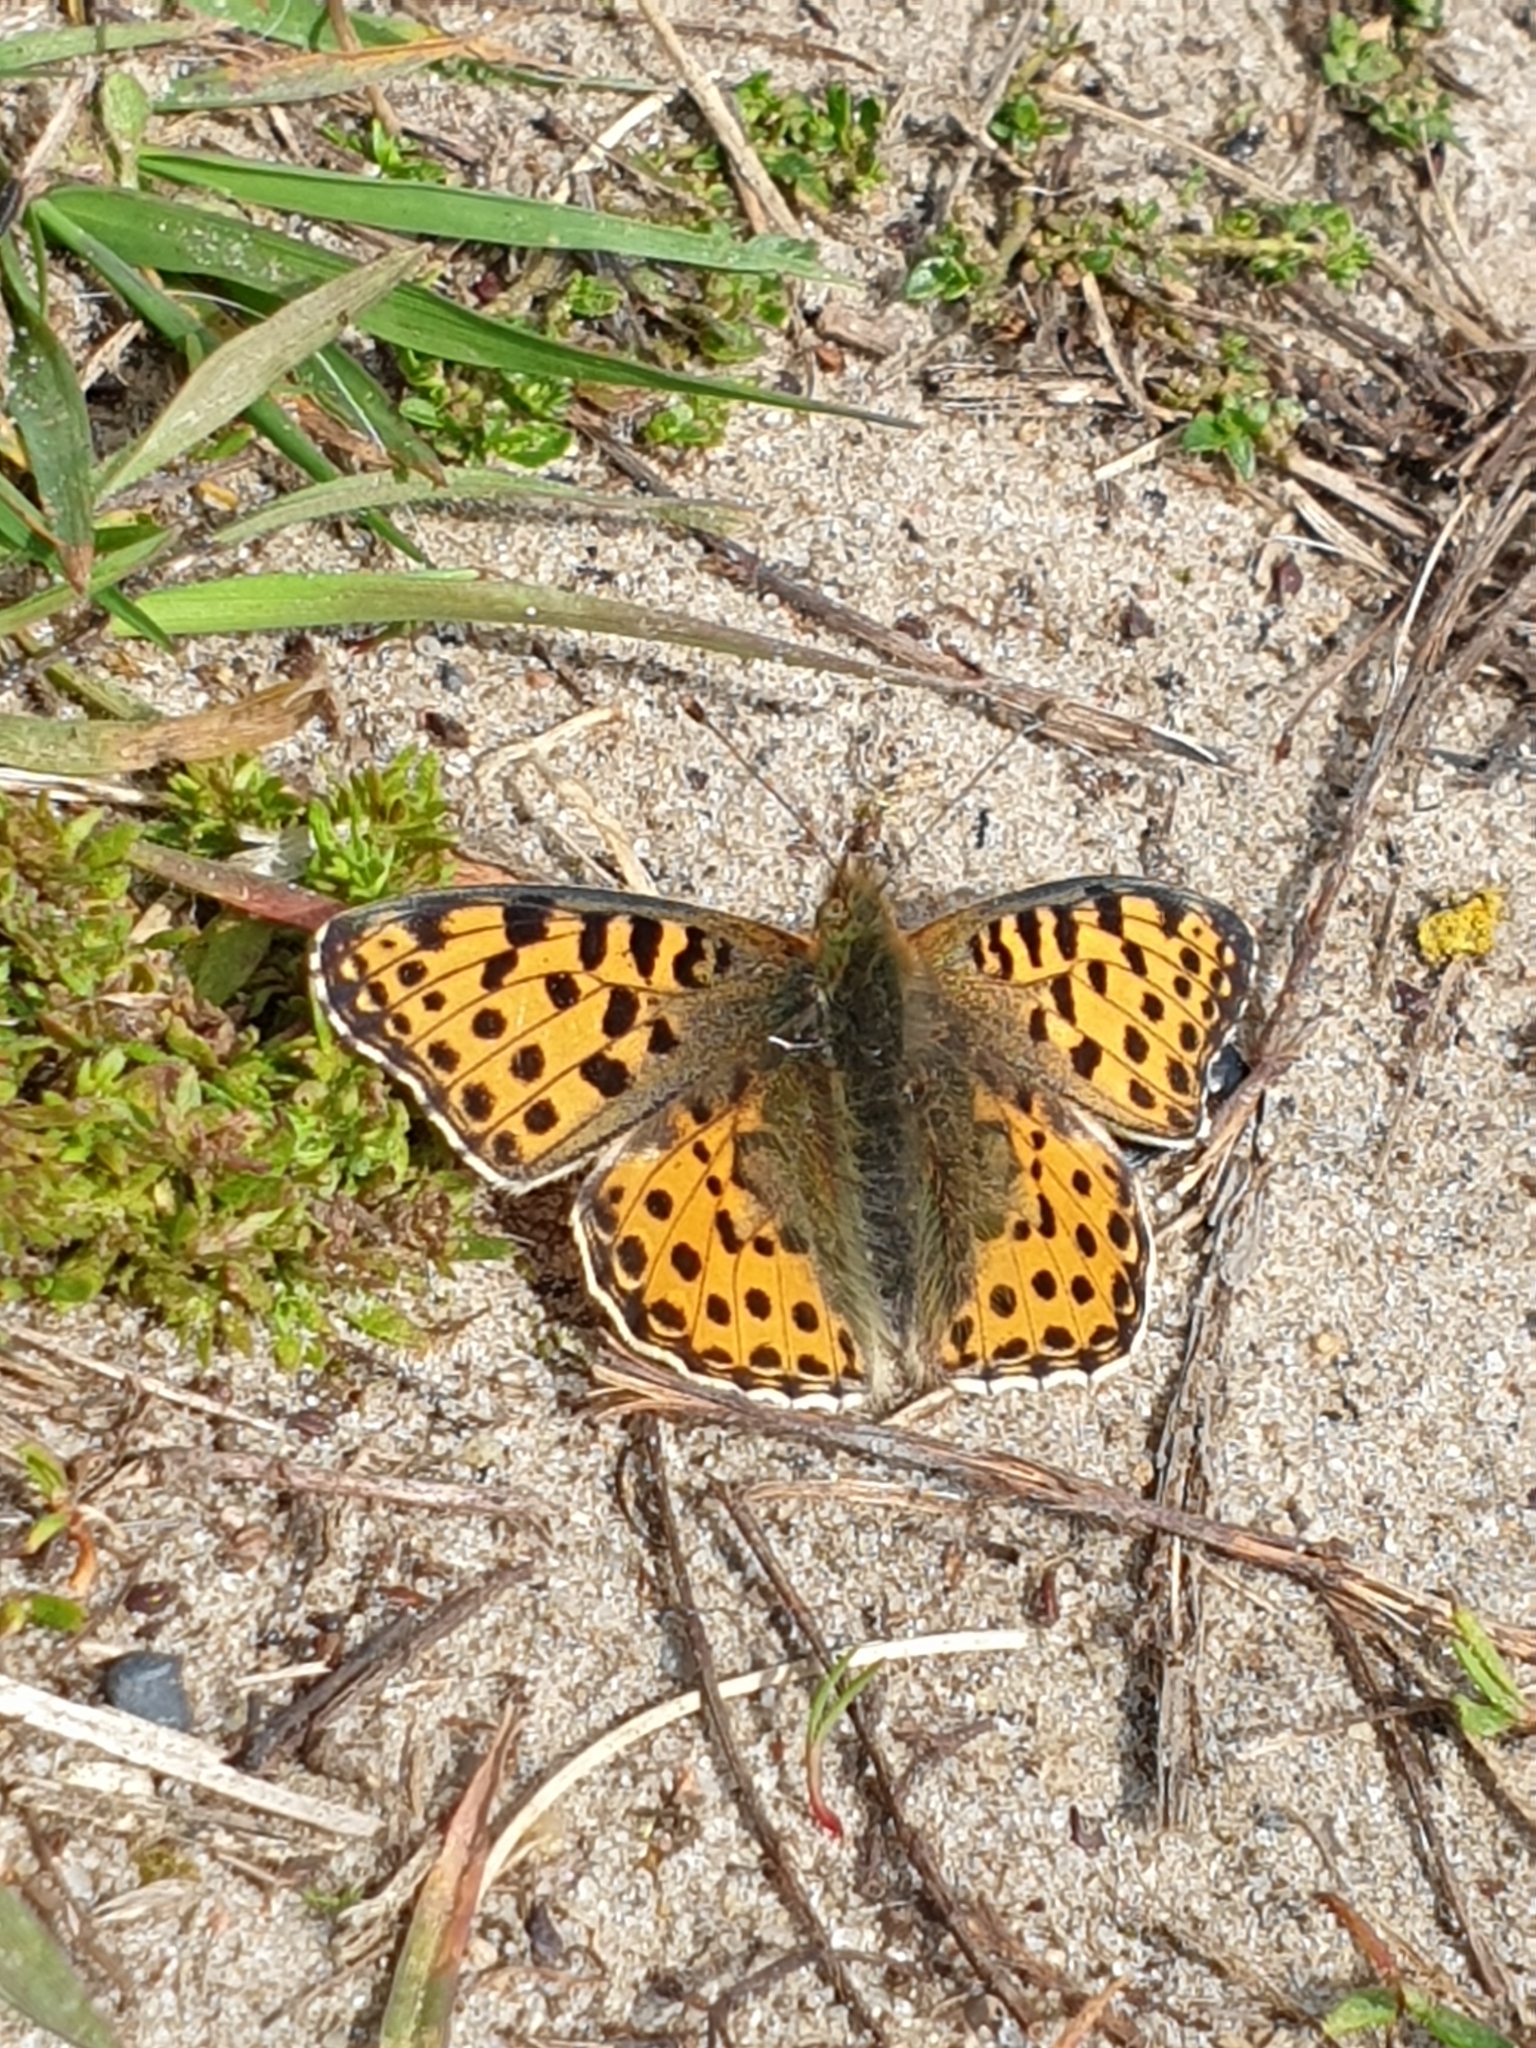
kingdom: Animalia
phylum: Arthropoda
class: Insecta
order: Lepidoptera
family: Nymphalidae
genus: Issoria
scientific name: Issoria lathonia
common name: Queen of spain fritillary
